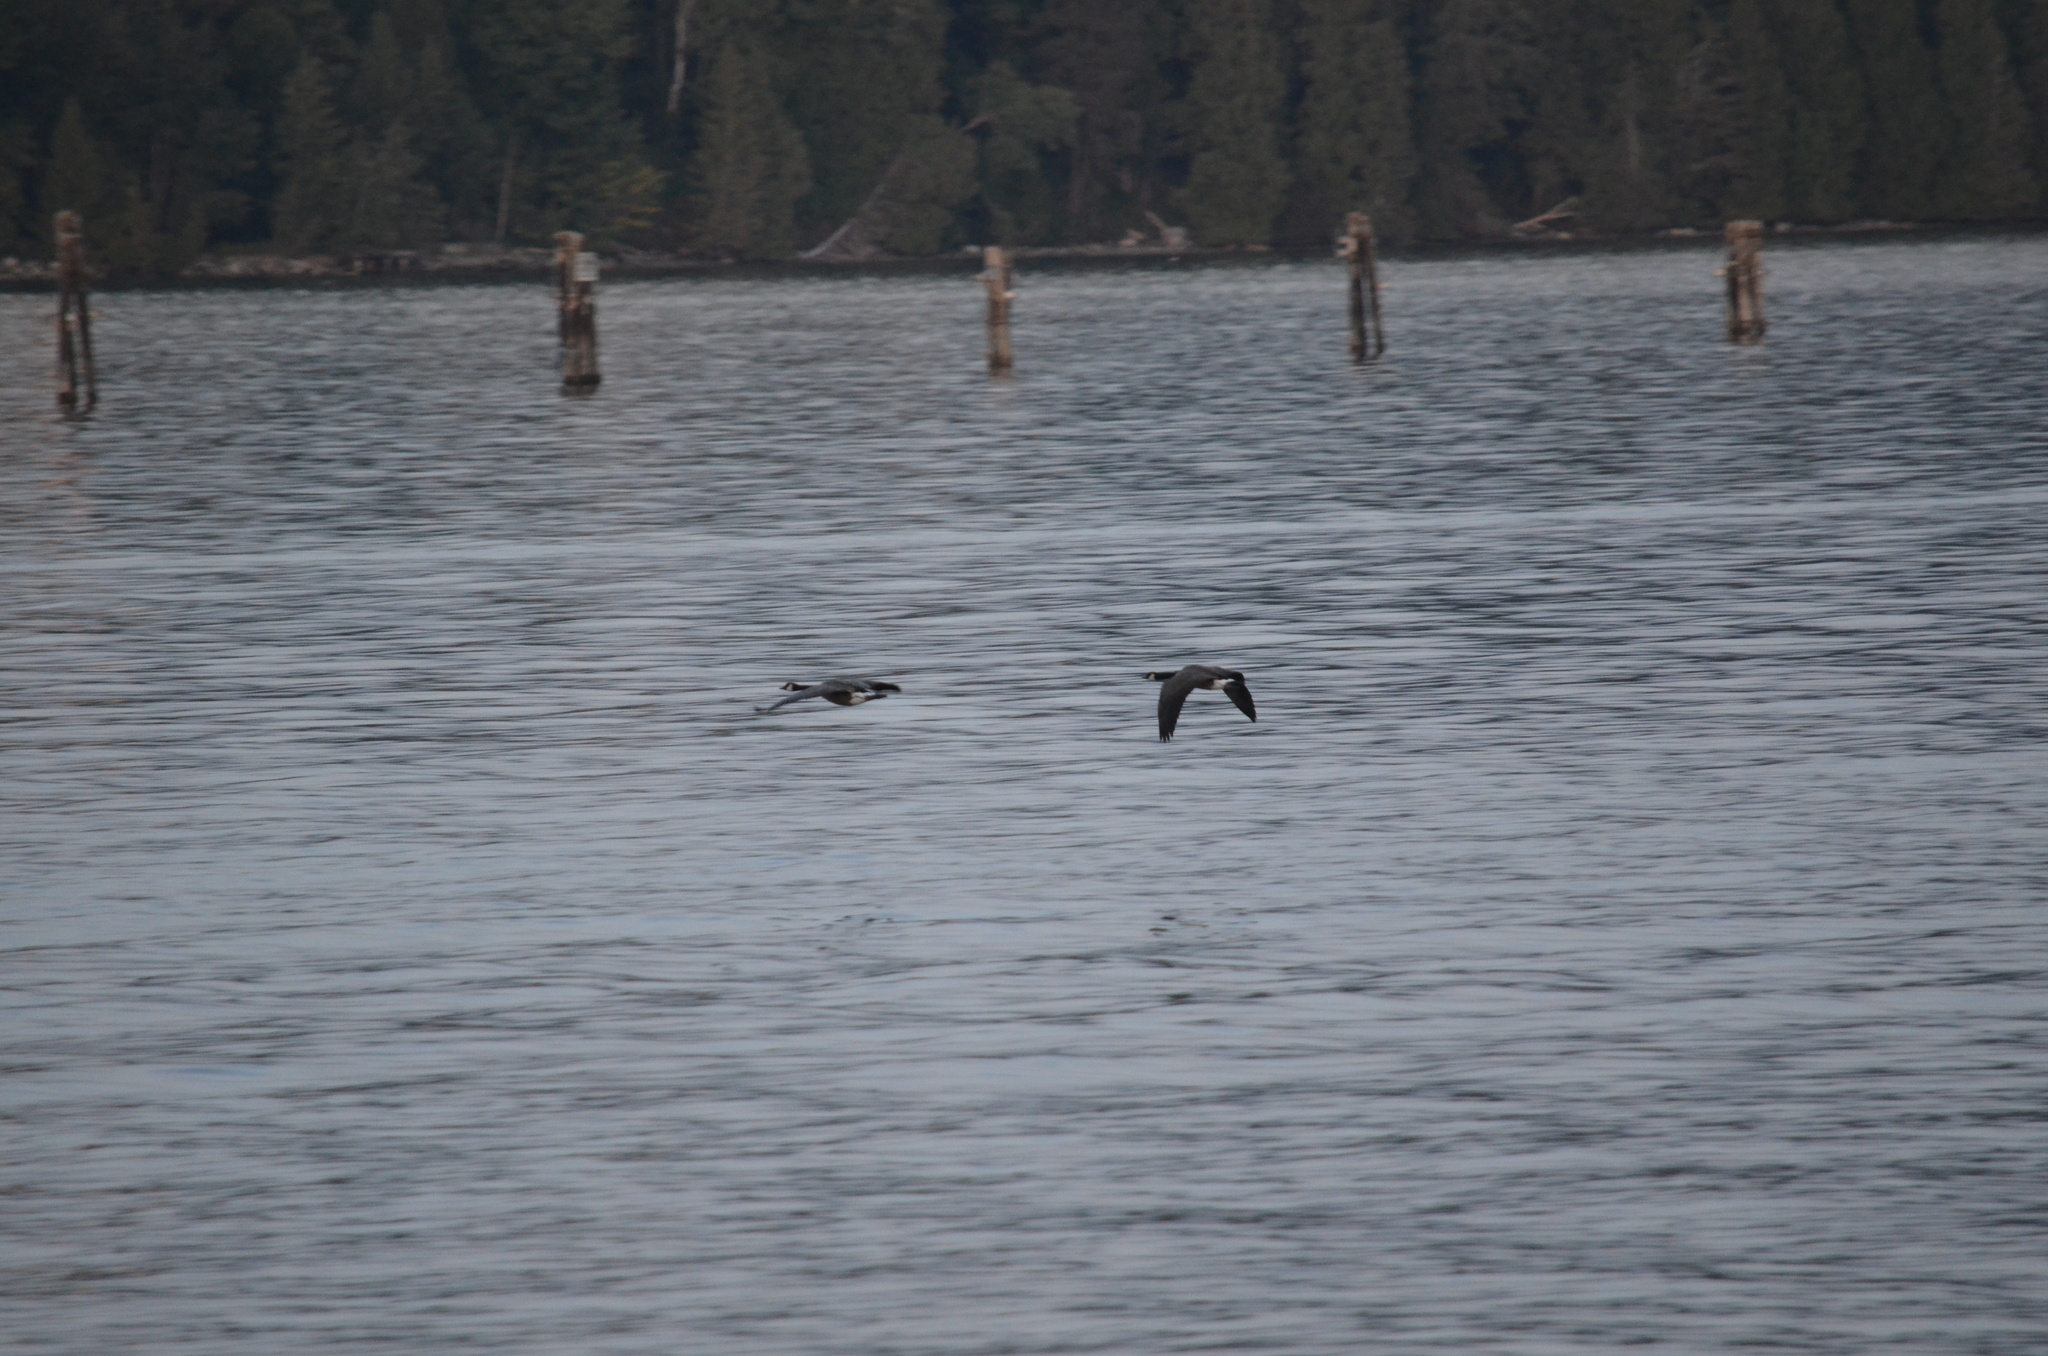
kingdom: Animalia
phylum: Chordata
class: Aves
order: Anseriformes
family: Anatidae
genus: Branta
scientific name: Branta canadensis
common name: Canada goose
